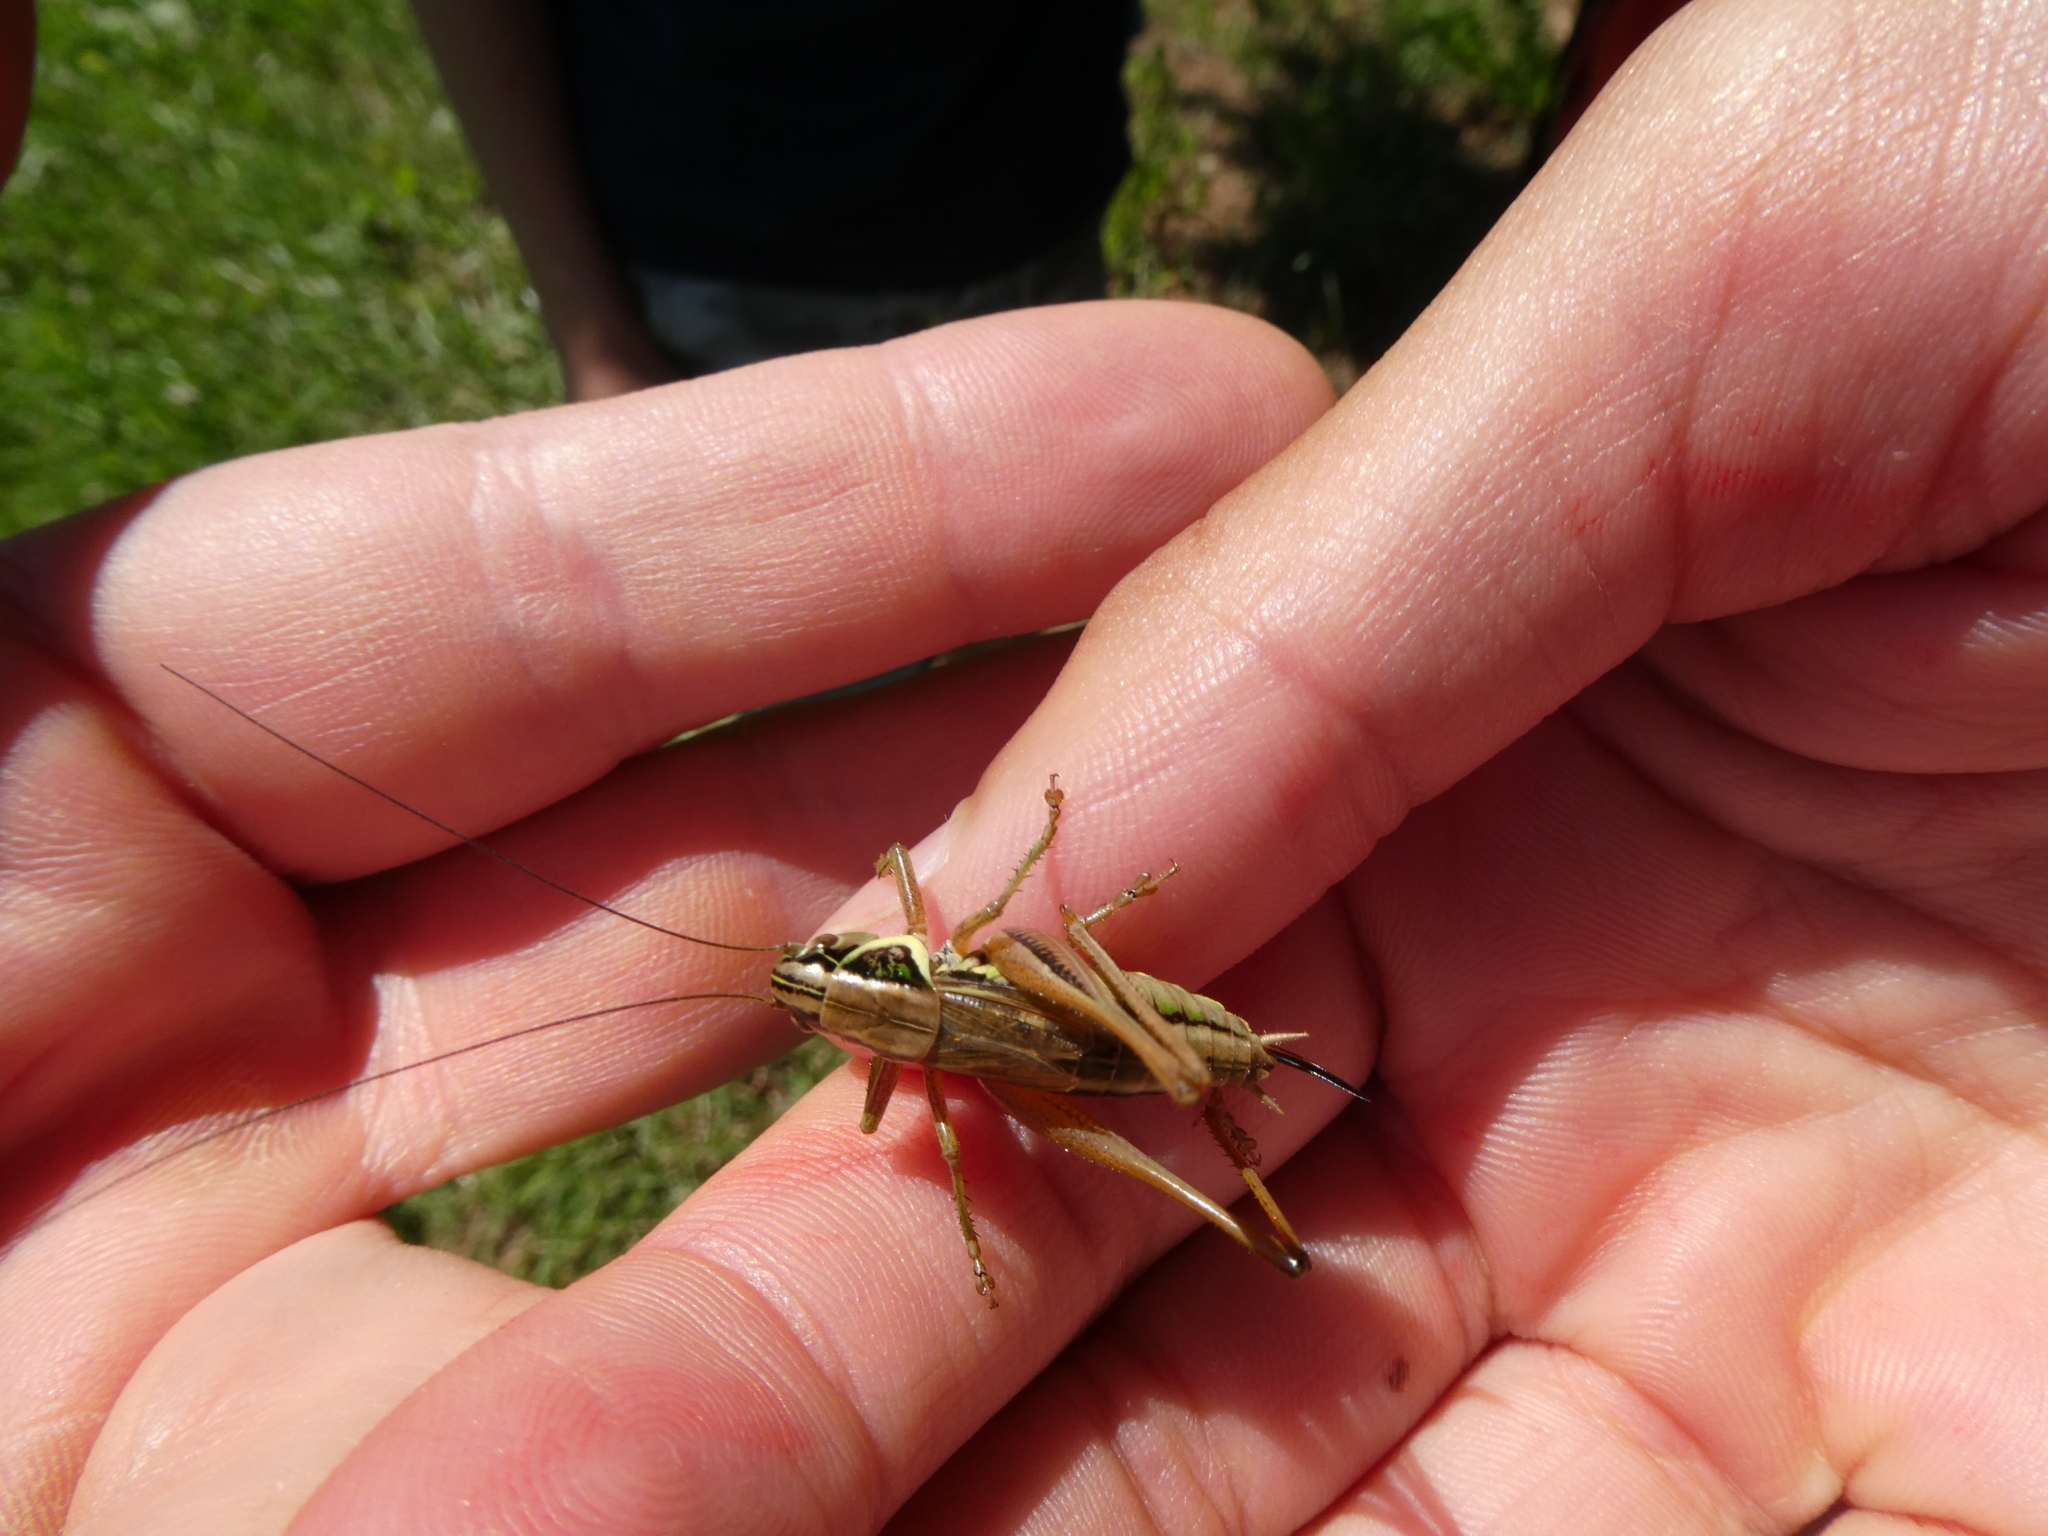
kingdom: Animalia
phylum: Arthropoda
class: Insecta
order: Orthoptera
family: Tettigoniidae
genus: Roeseliana
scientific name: Roeseliana roeselii
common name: Roesel's bush cricket
